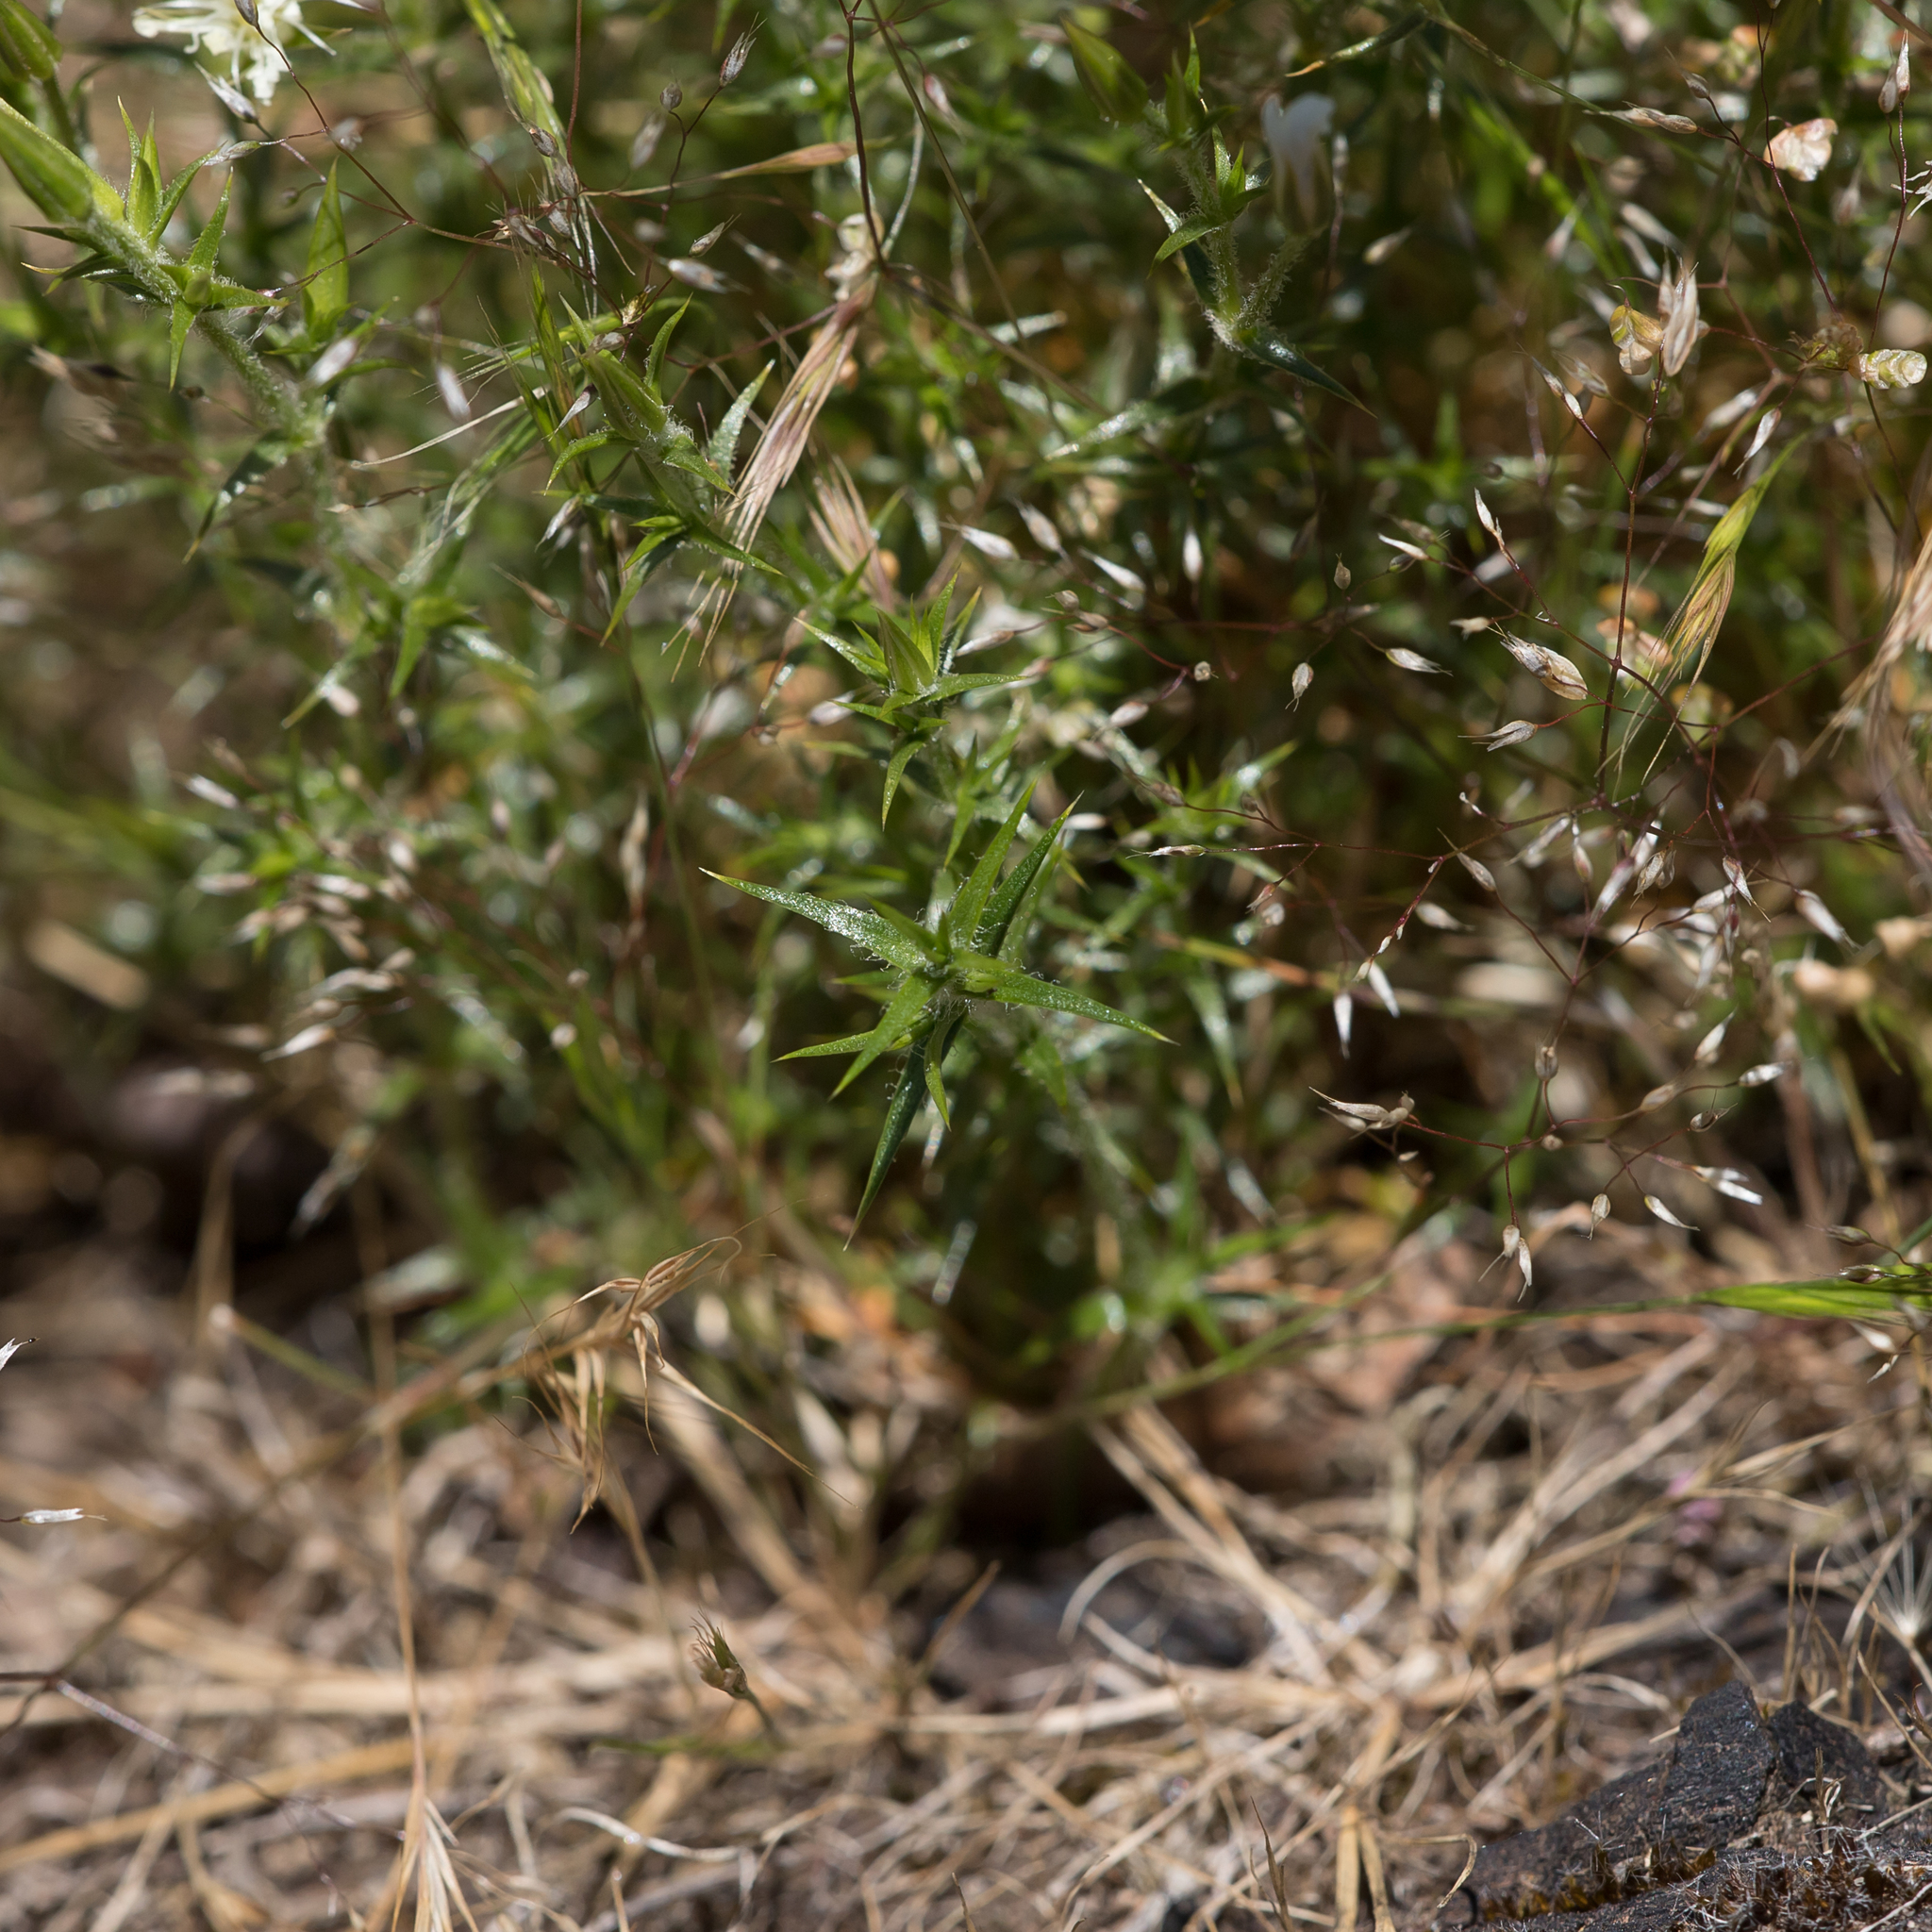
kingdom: Plantae
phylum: Tracheophyta
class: Magnoliopsida
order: Caryophyllales
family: Caryophyllaceae
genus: Stellaria
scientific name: Stellaria pungens
